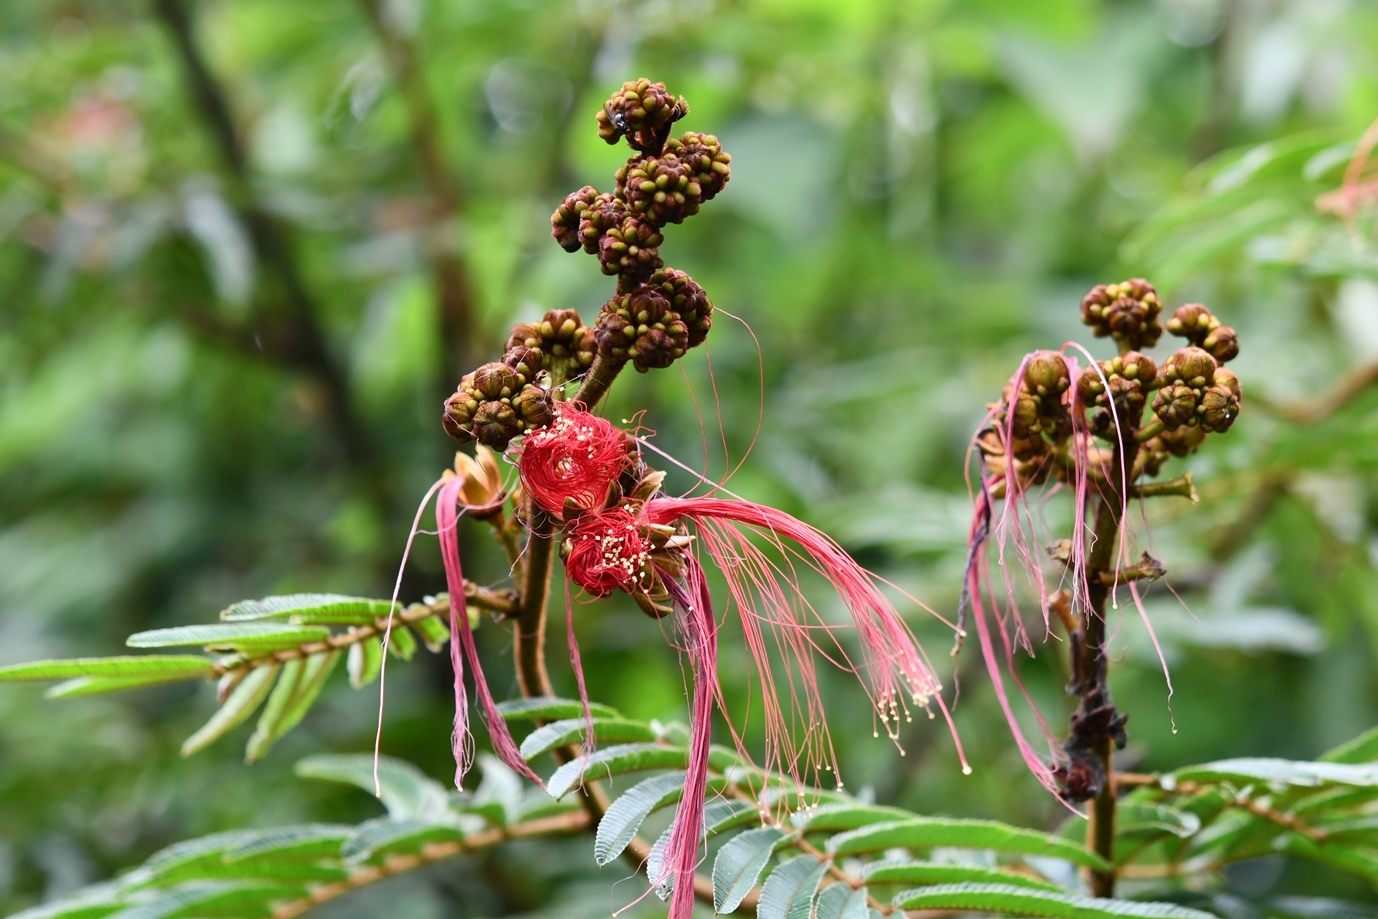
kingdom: Plantae
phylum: Tracheophyta
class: Magnoliopsida
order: Fabales
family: Fabaceae
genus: Calliandra
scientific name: Calliandra houstoniana
